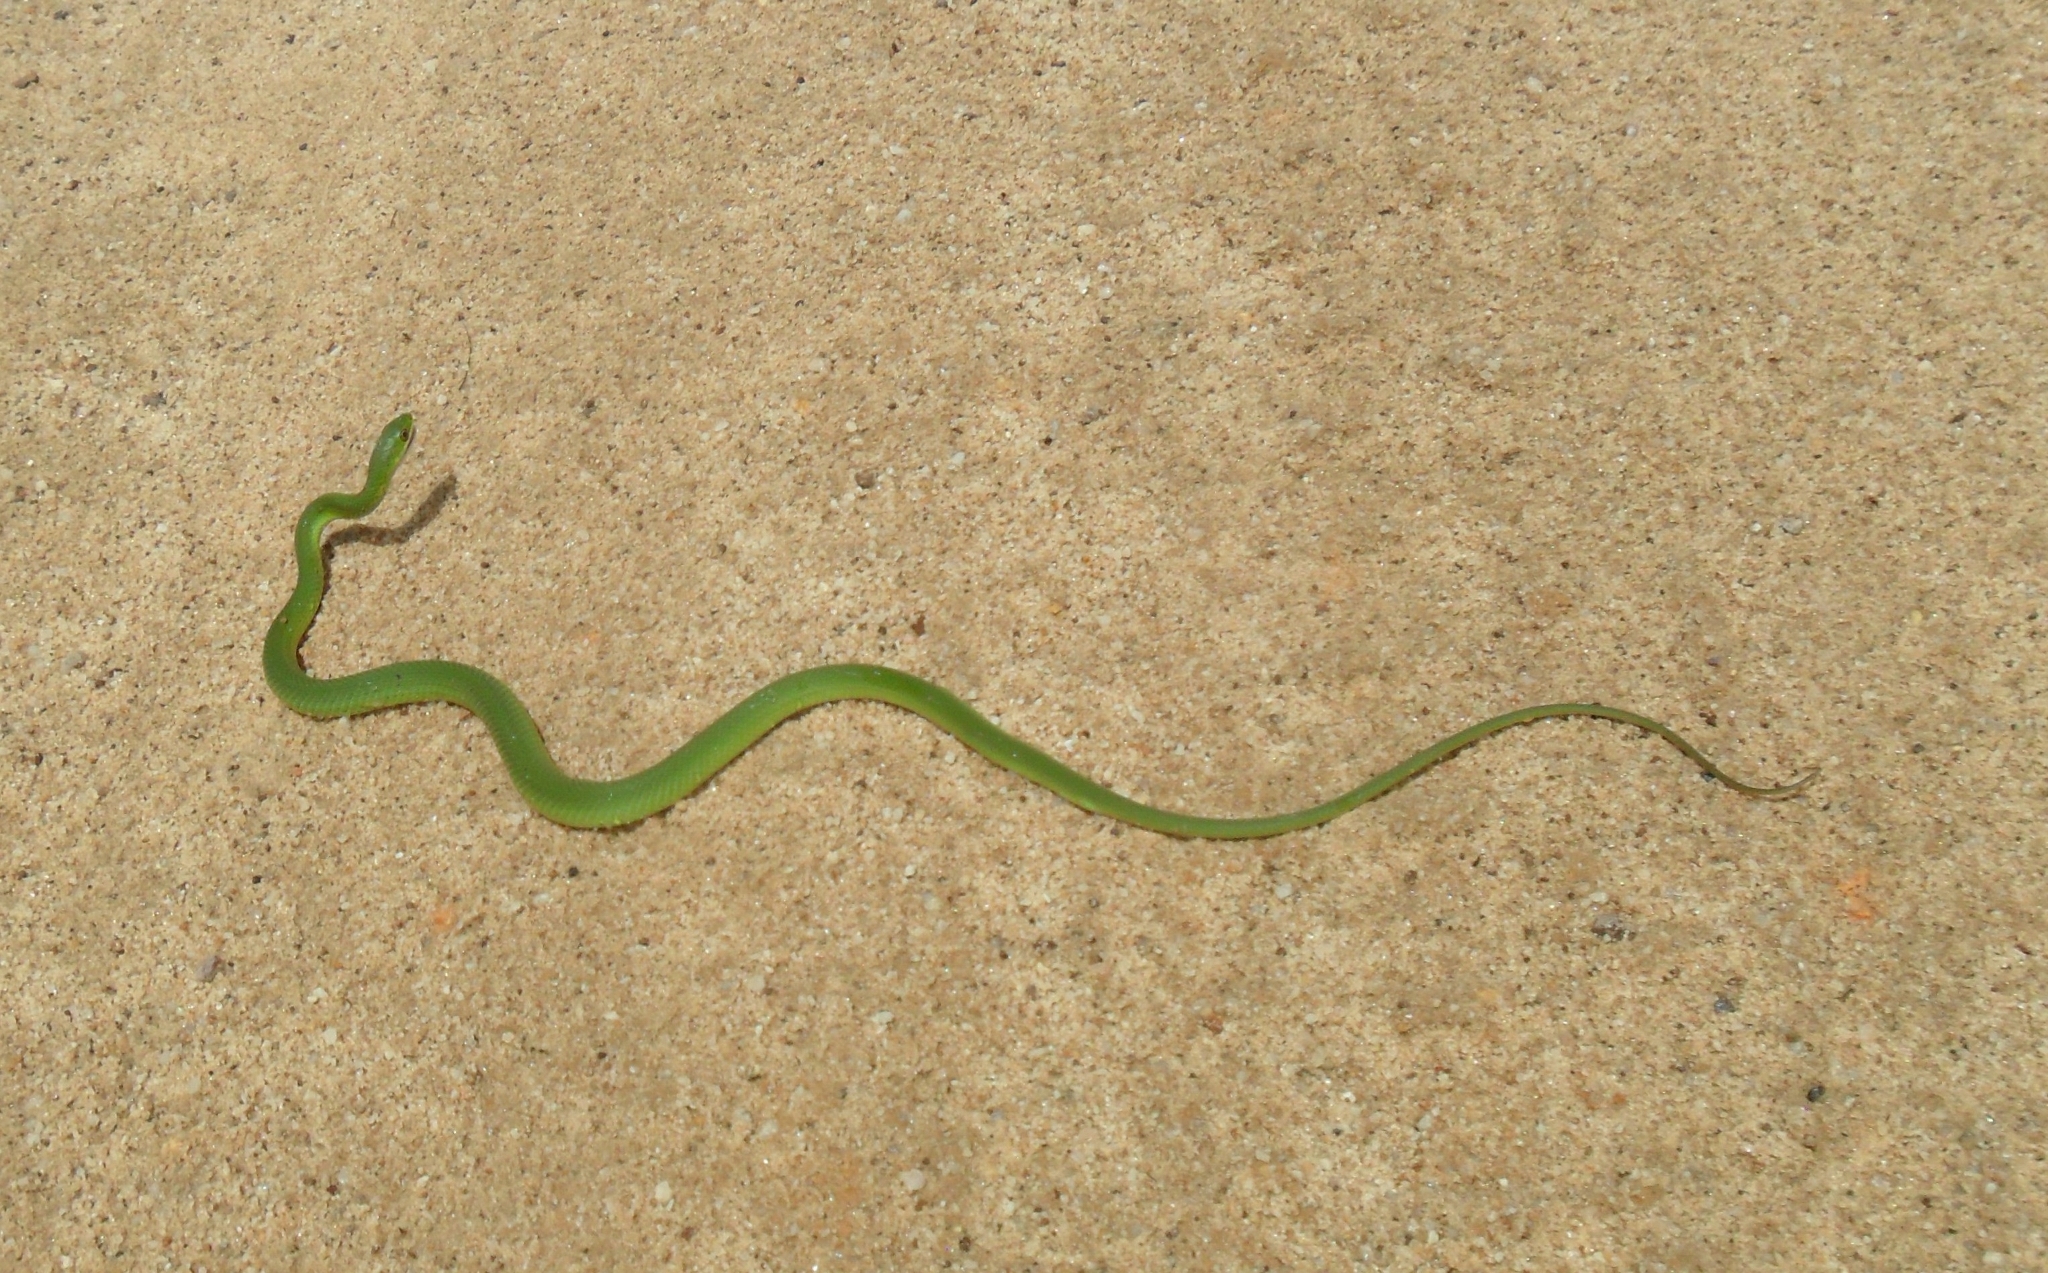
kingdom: Animalia
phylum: Chordata
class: Squamata
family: Colubridae
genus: Philodryas
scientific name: Philodryas aestiva
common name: Brazilian green racer
